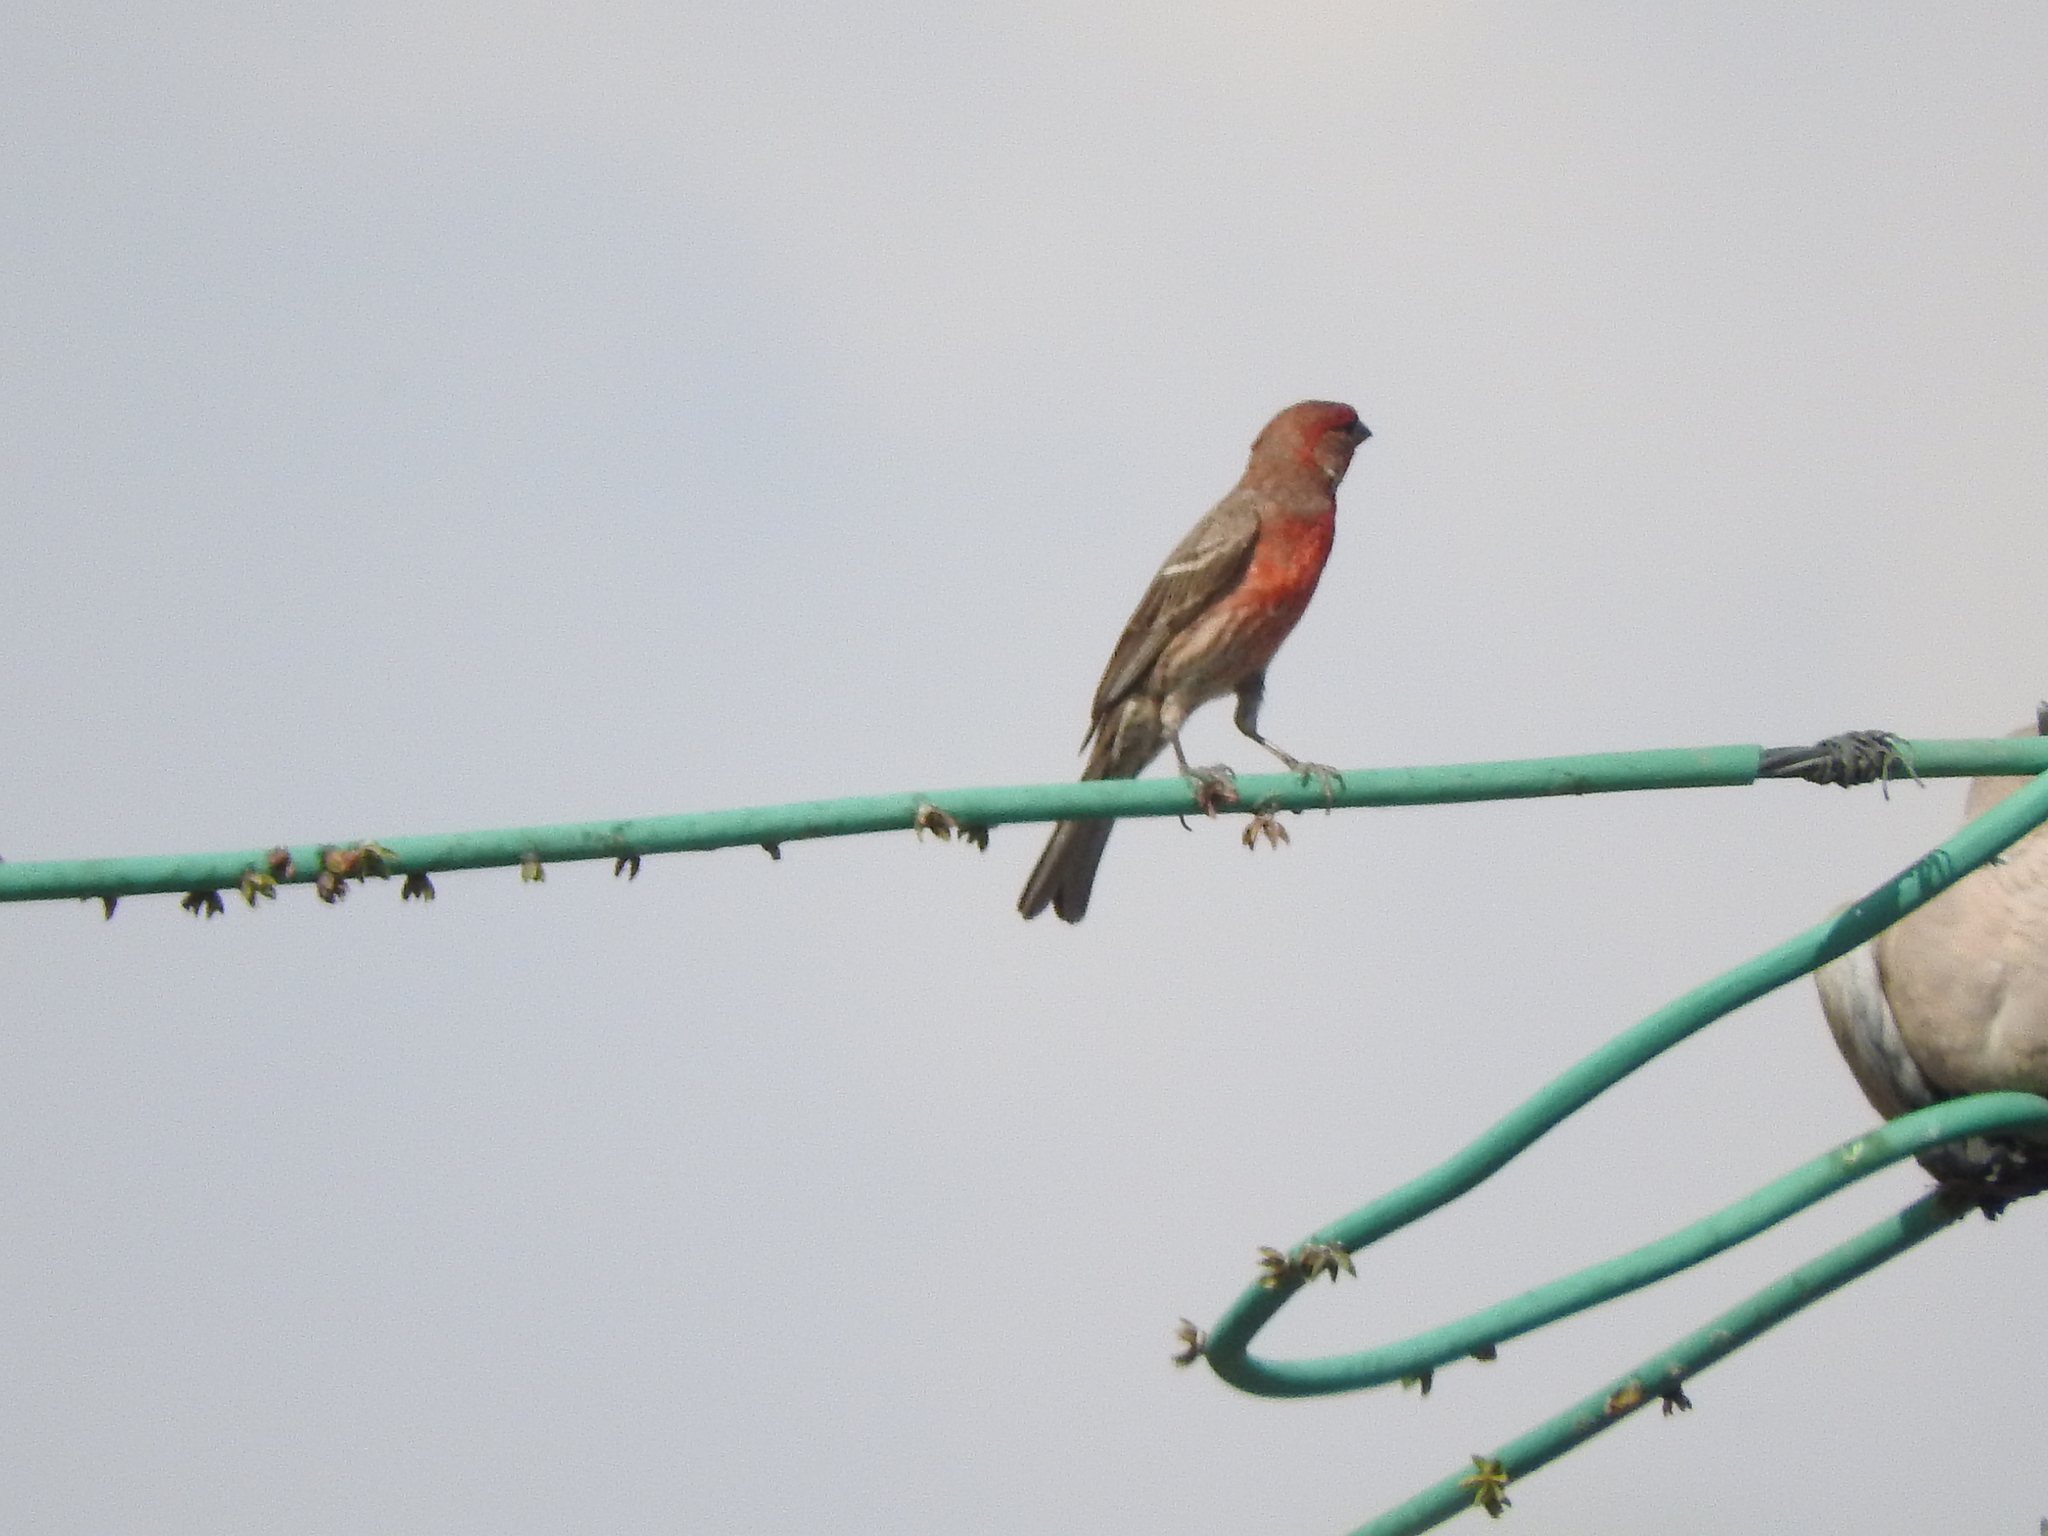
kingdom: Animalia
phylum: Chordata
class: Aves
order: Passeriformes
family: Fringillidae
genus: Haemorhous
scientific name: Haemorhous mexicanus
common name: House finch
